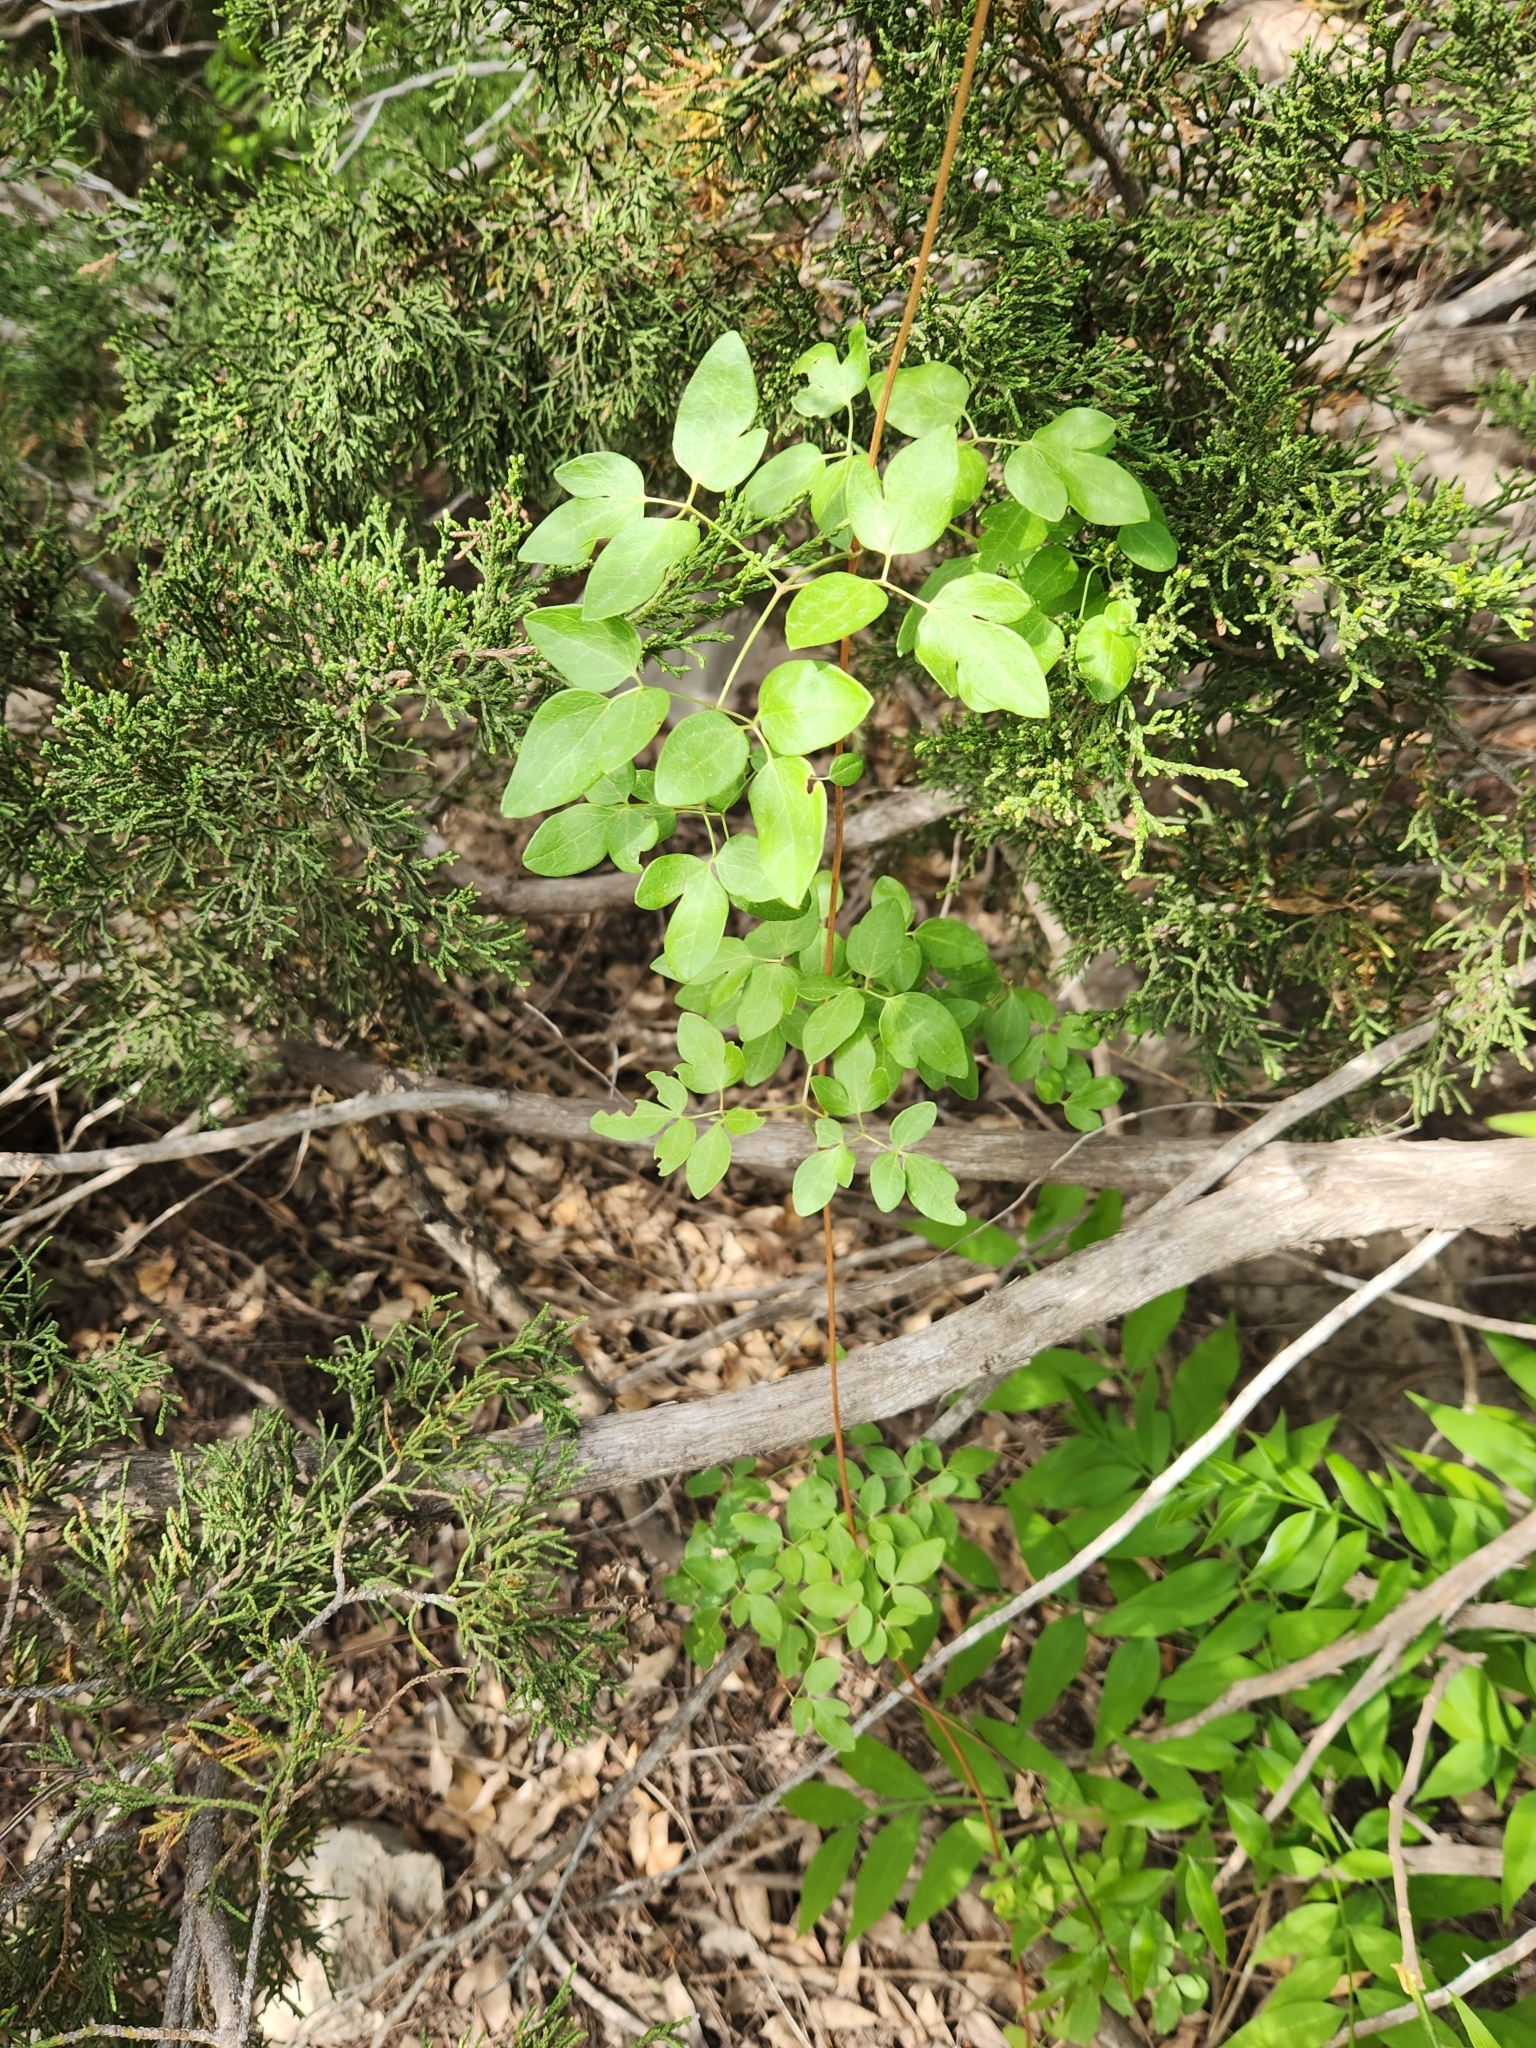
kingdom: Plantae
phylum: Tracheophyta
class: Magnoliopsida
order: Ranunculales
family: Ranunculaceae
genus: Clematis
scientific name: Clematis pitcheri
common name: Bellflower clematis
